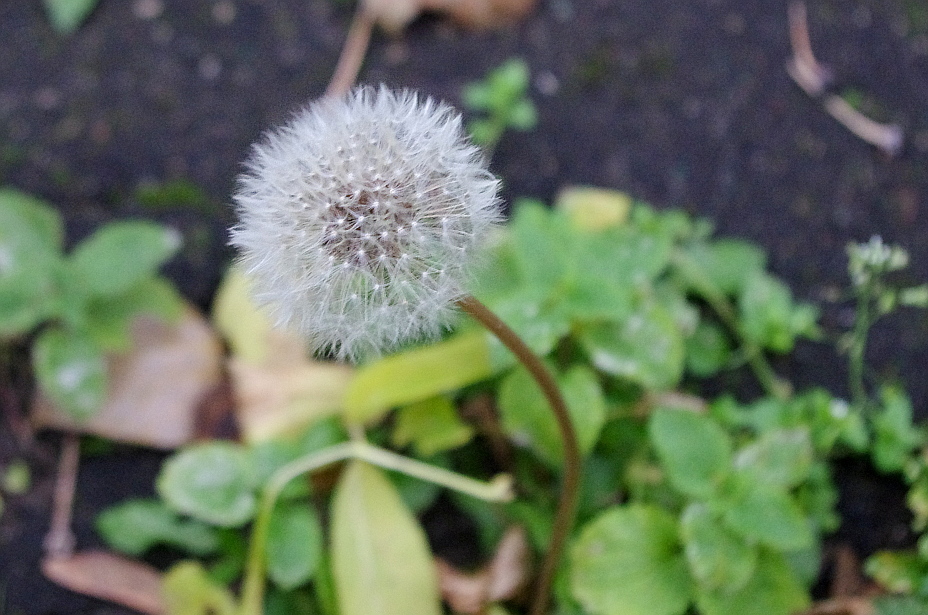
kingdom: Plantae
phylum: Tracheophyta
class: Magnoliopsida
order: Asterales
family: Asteraceae
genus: Taraxacum
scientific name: Taraxacum officinale
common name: Common dandelion
